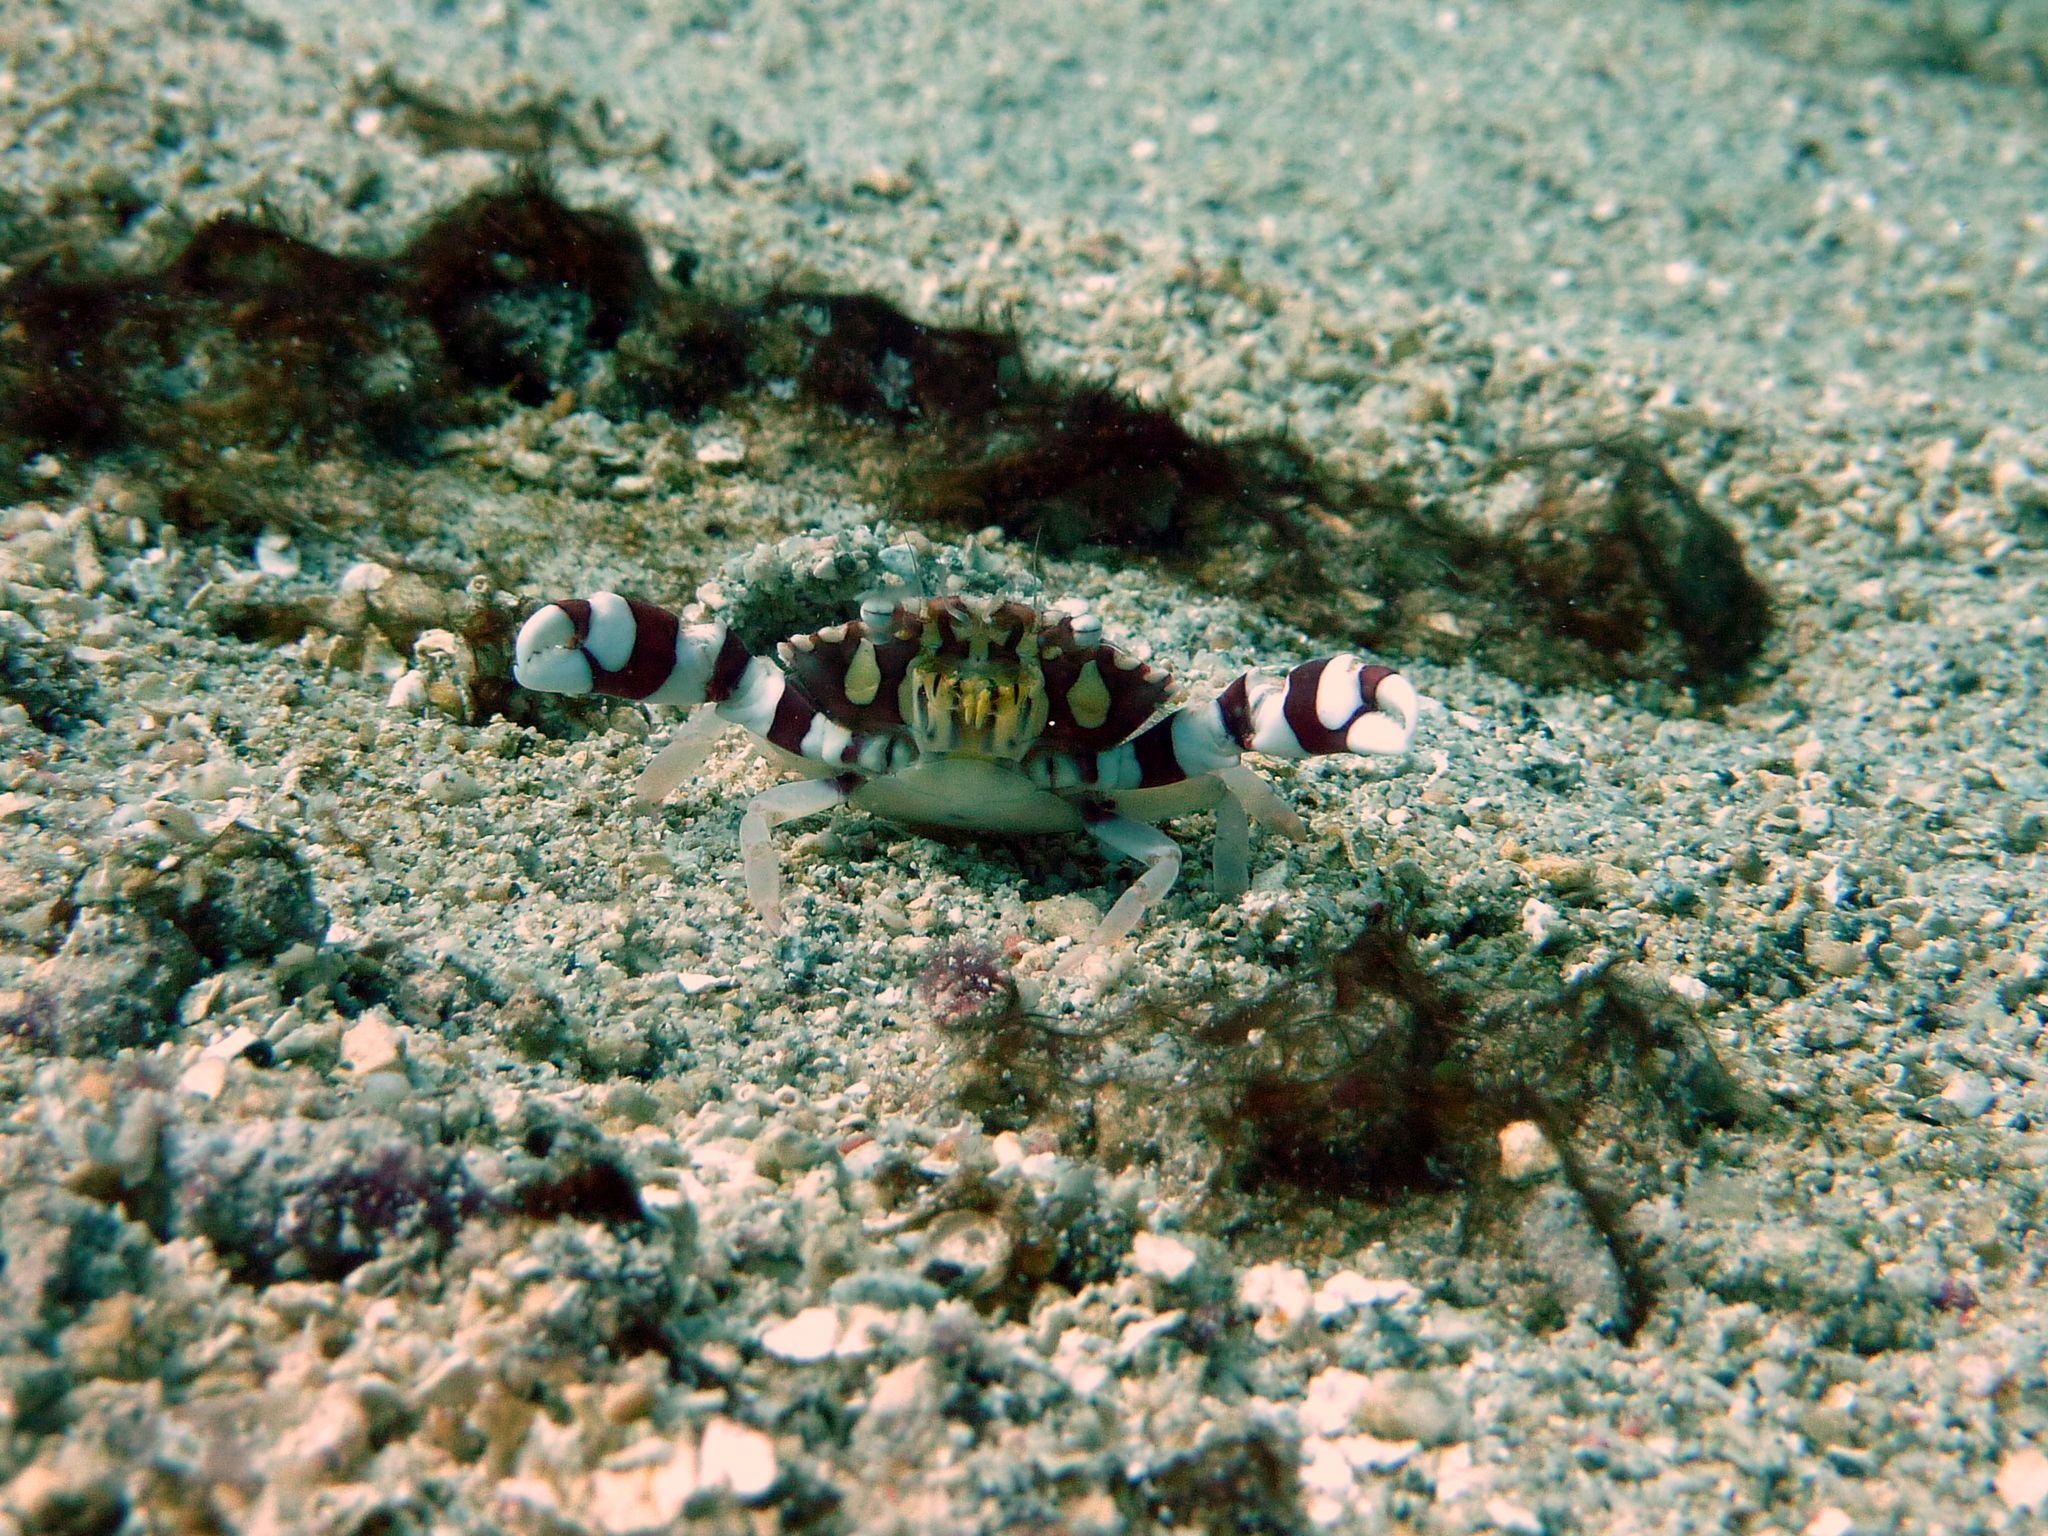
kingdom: Animalia
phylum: Arthropoda
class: Malacostraca
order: Decapoda
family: Portunidae
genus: Lissocarcinus
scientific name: Lissocarcinus laevis
